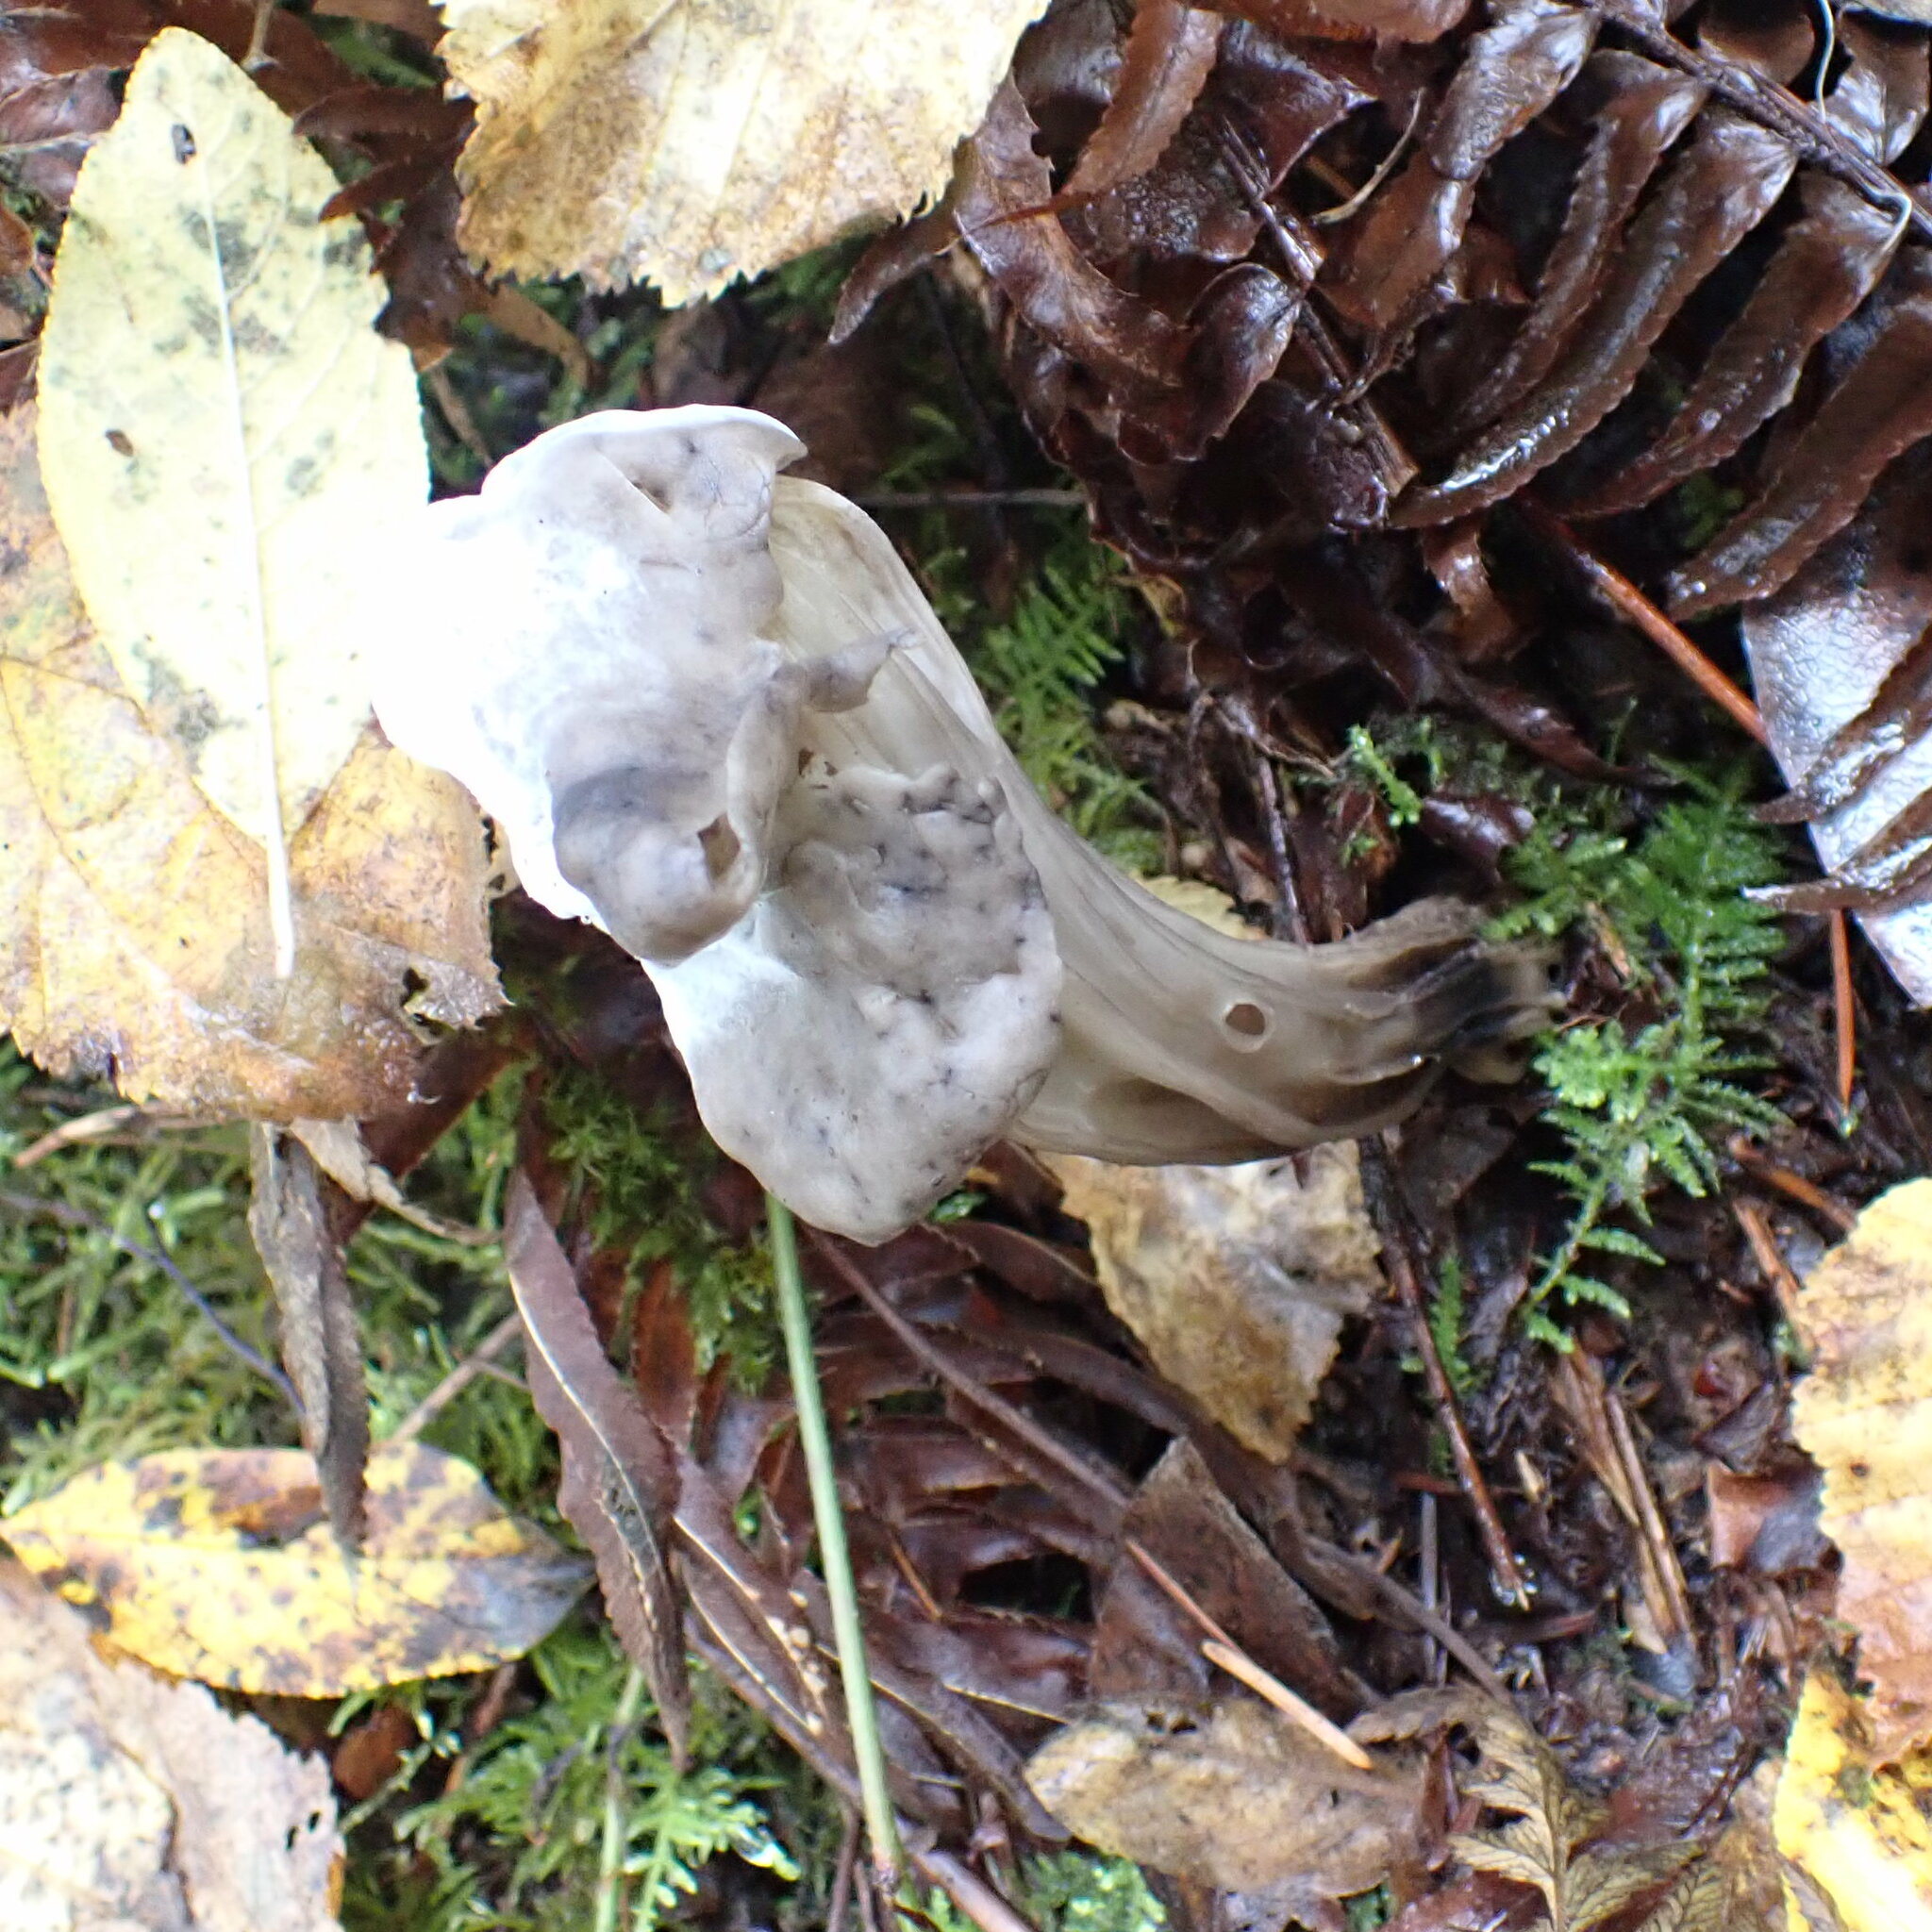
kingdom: Fungi
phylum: Ascomycota
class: Pezizomycetes
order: Pezizales
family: Helvellaceae
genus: Helvella
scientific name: Helvella vespertina
